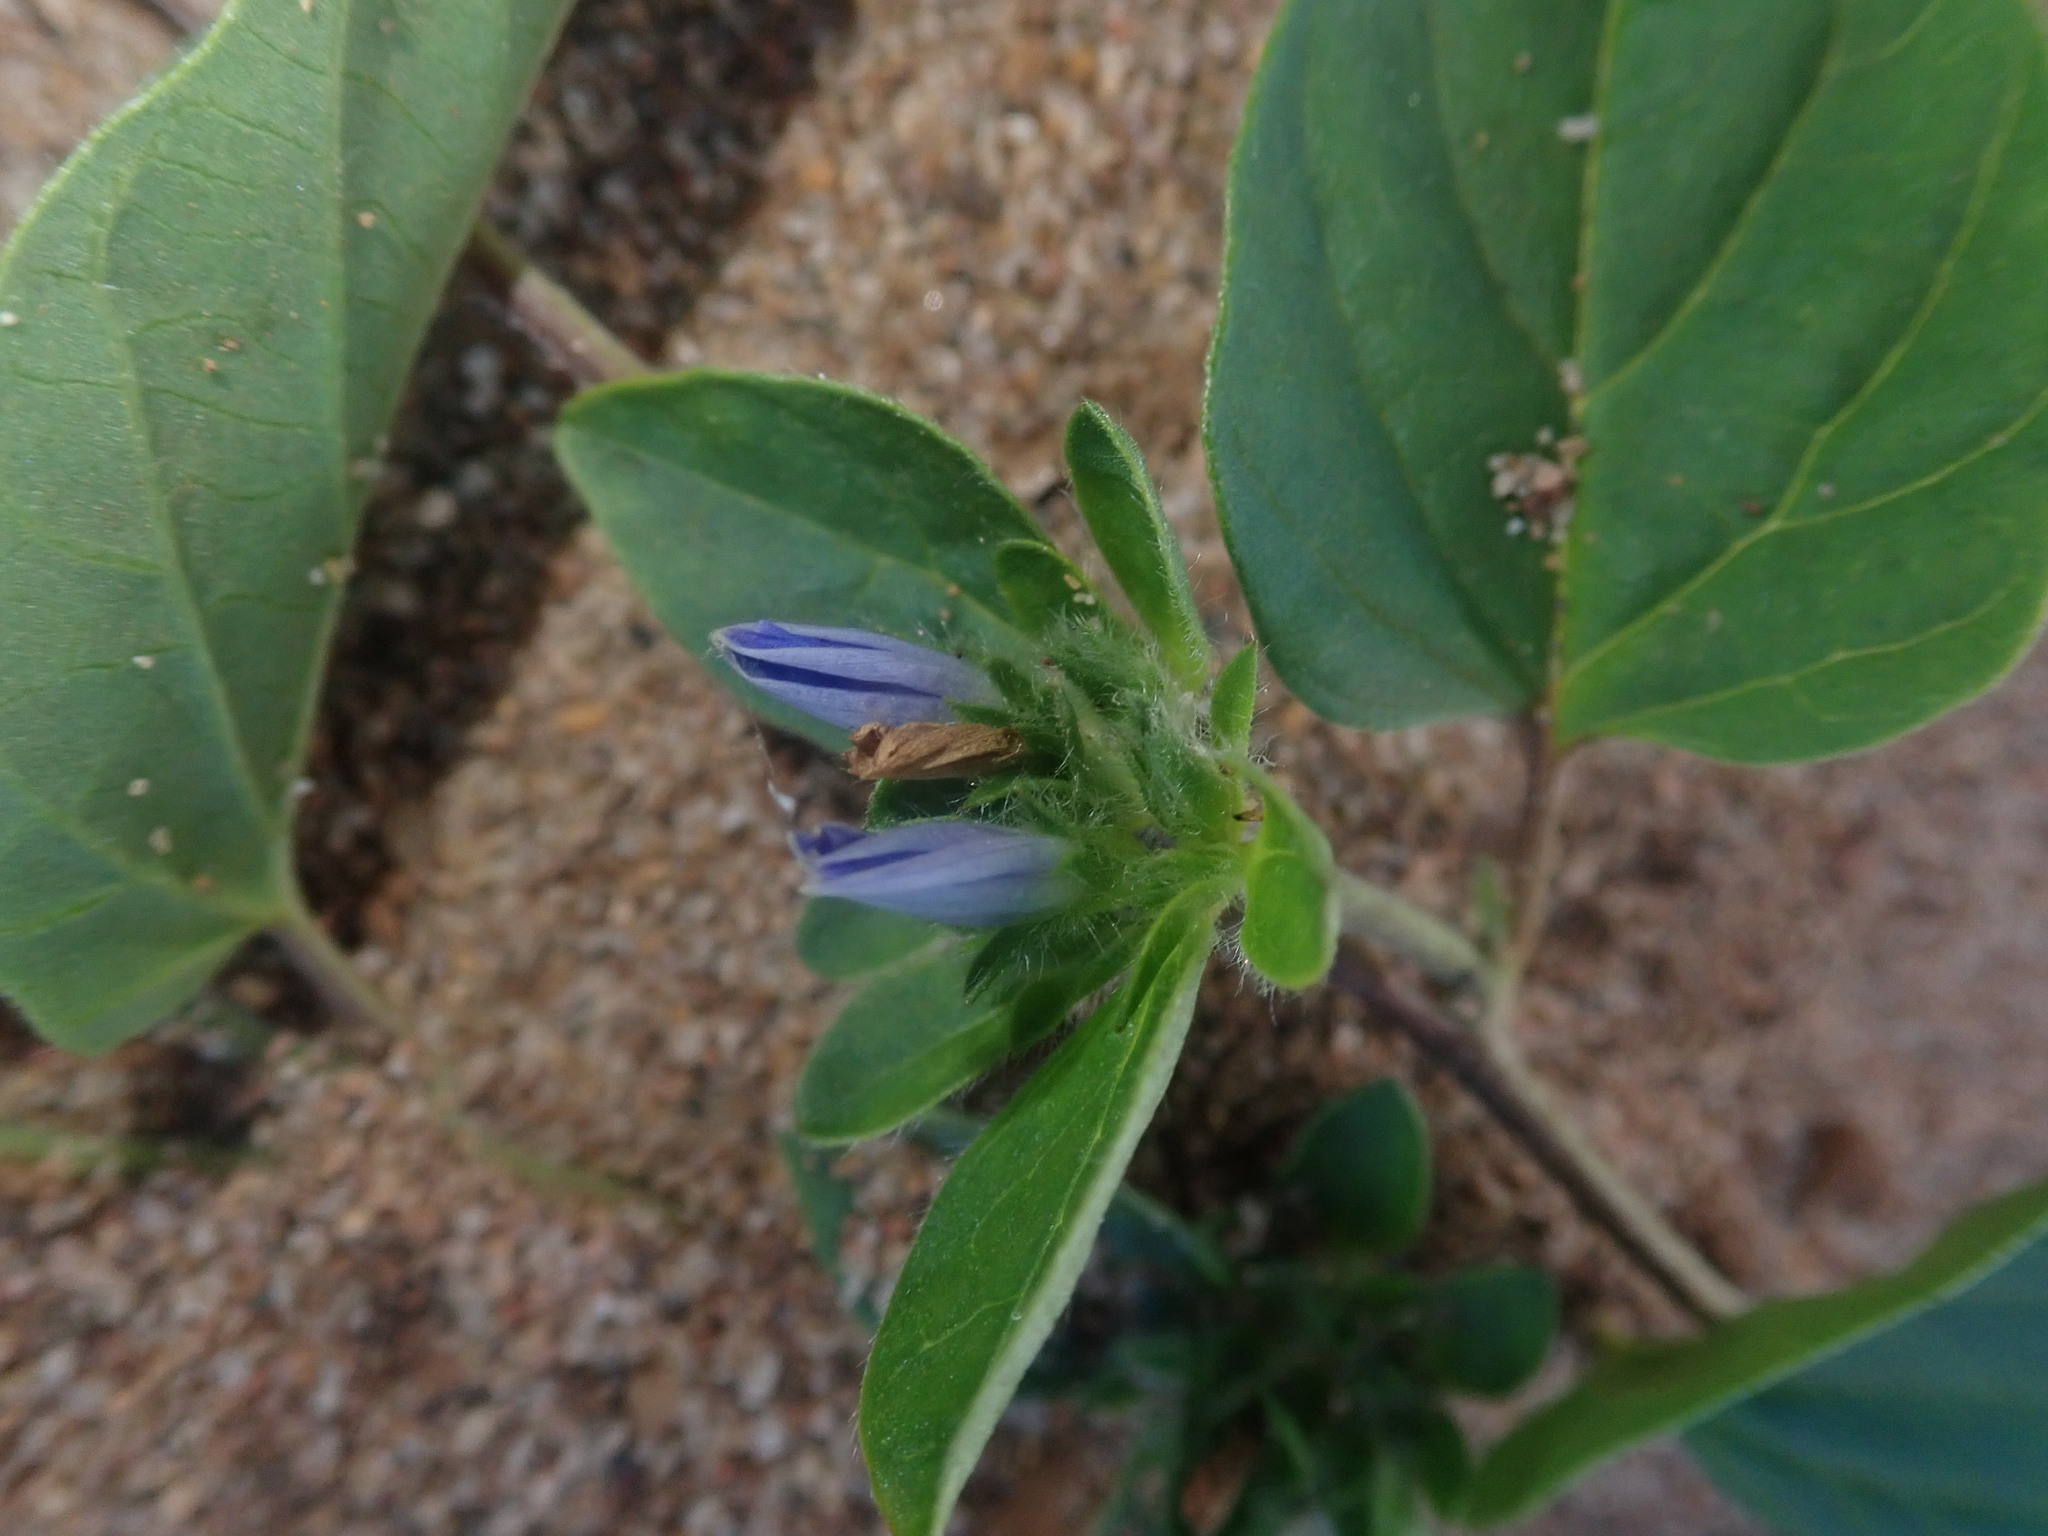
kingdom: Plantae
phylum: Tracheophyta
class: Magnoliopsida
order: Solanales
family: Convolvulaceae
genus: Jacquemontia
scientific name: Jacquemontia tamnifolia
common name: Hairy clustervine
